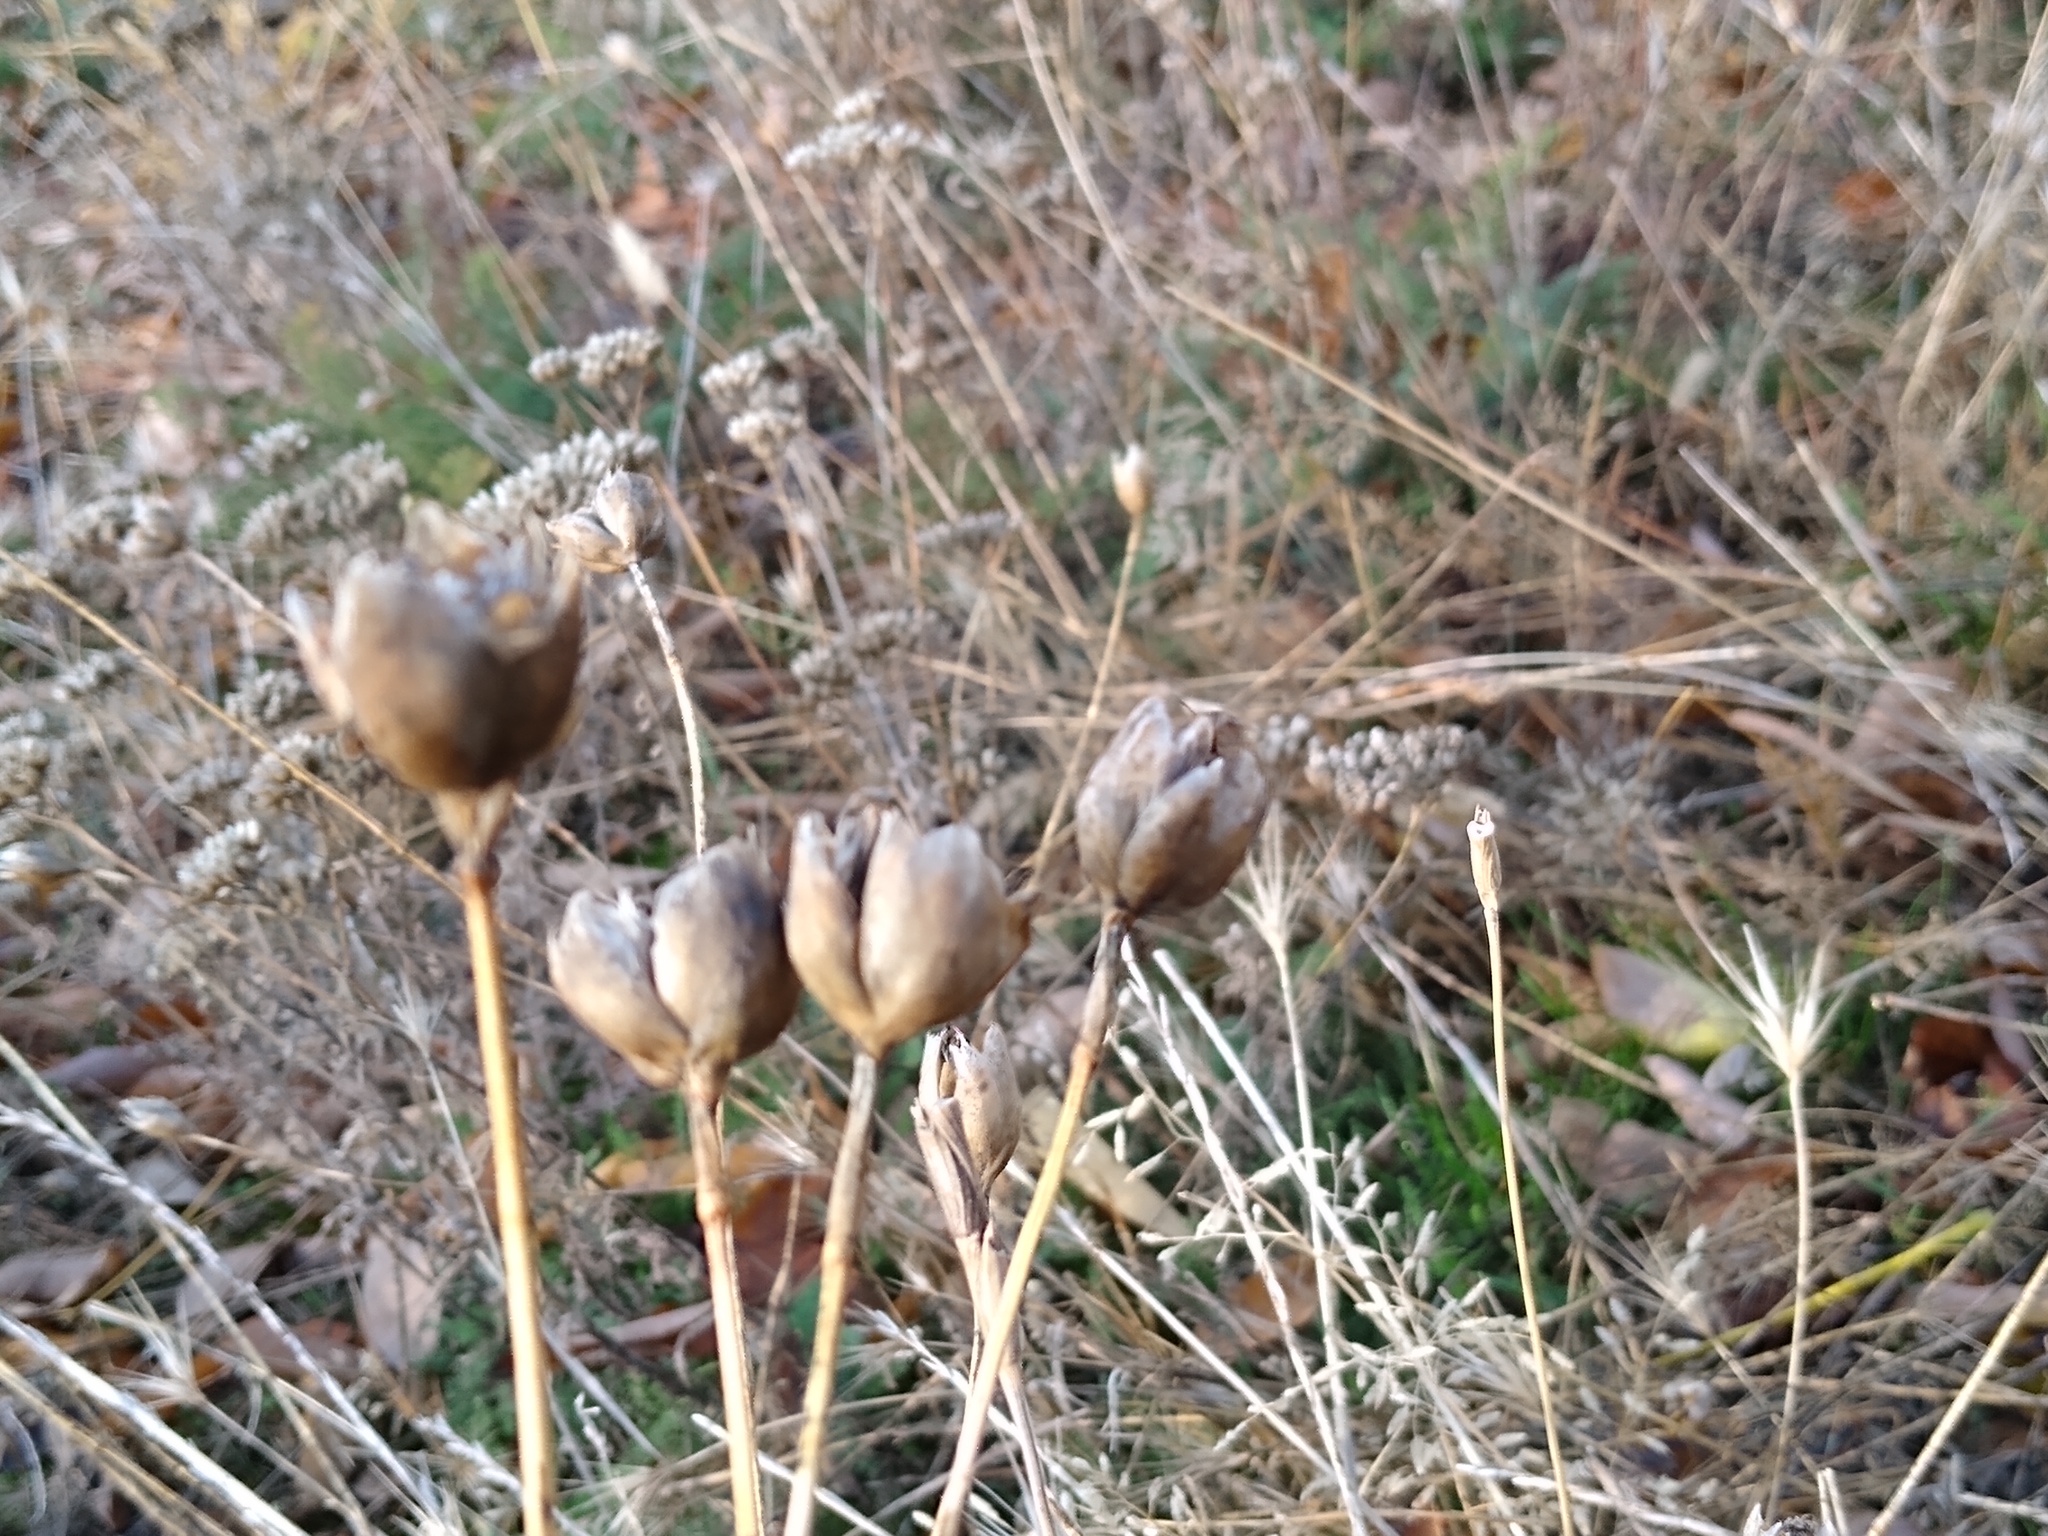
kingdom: Plantae
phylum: Tracheophyta
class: Magnoliopsida
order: Caryophyllales
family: Caryophyllaceae
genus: Petrorhagia
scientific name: Petrorhagia prolifera
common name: Proliferous pink
